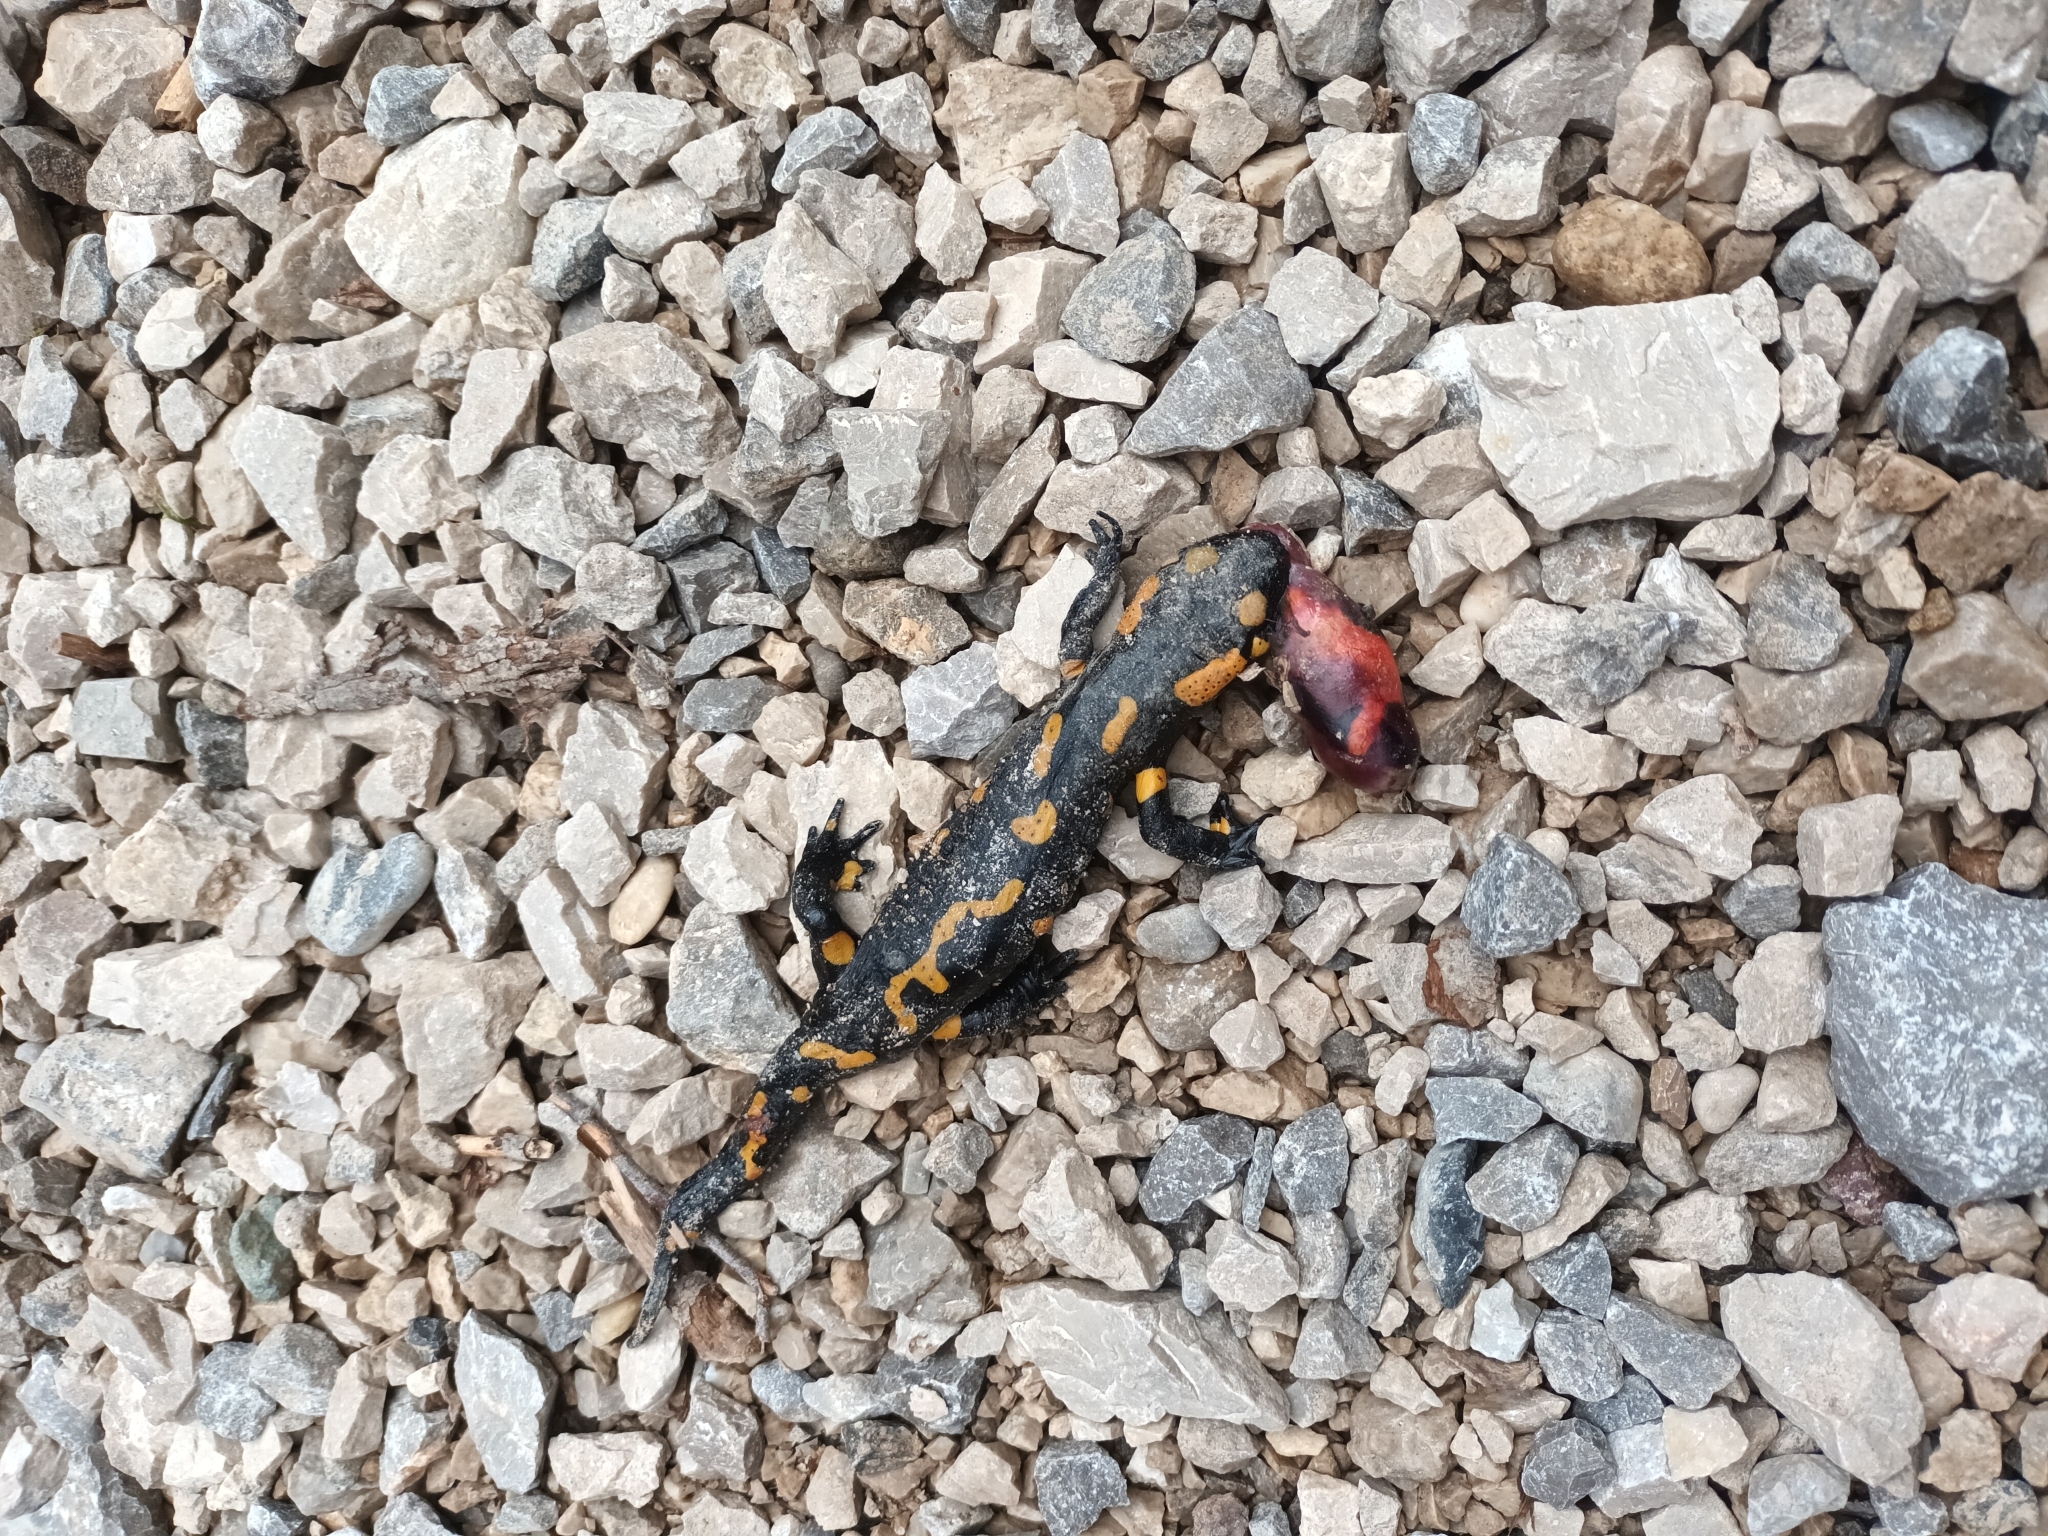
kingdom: Animalia
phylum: Chordata
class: Amphibia
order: Caudata
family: Salamandridae
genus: Salamandra
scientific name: Salamandra salamandra
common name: Fire salamander
